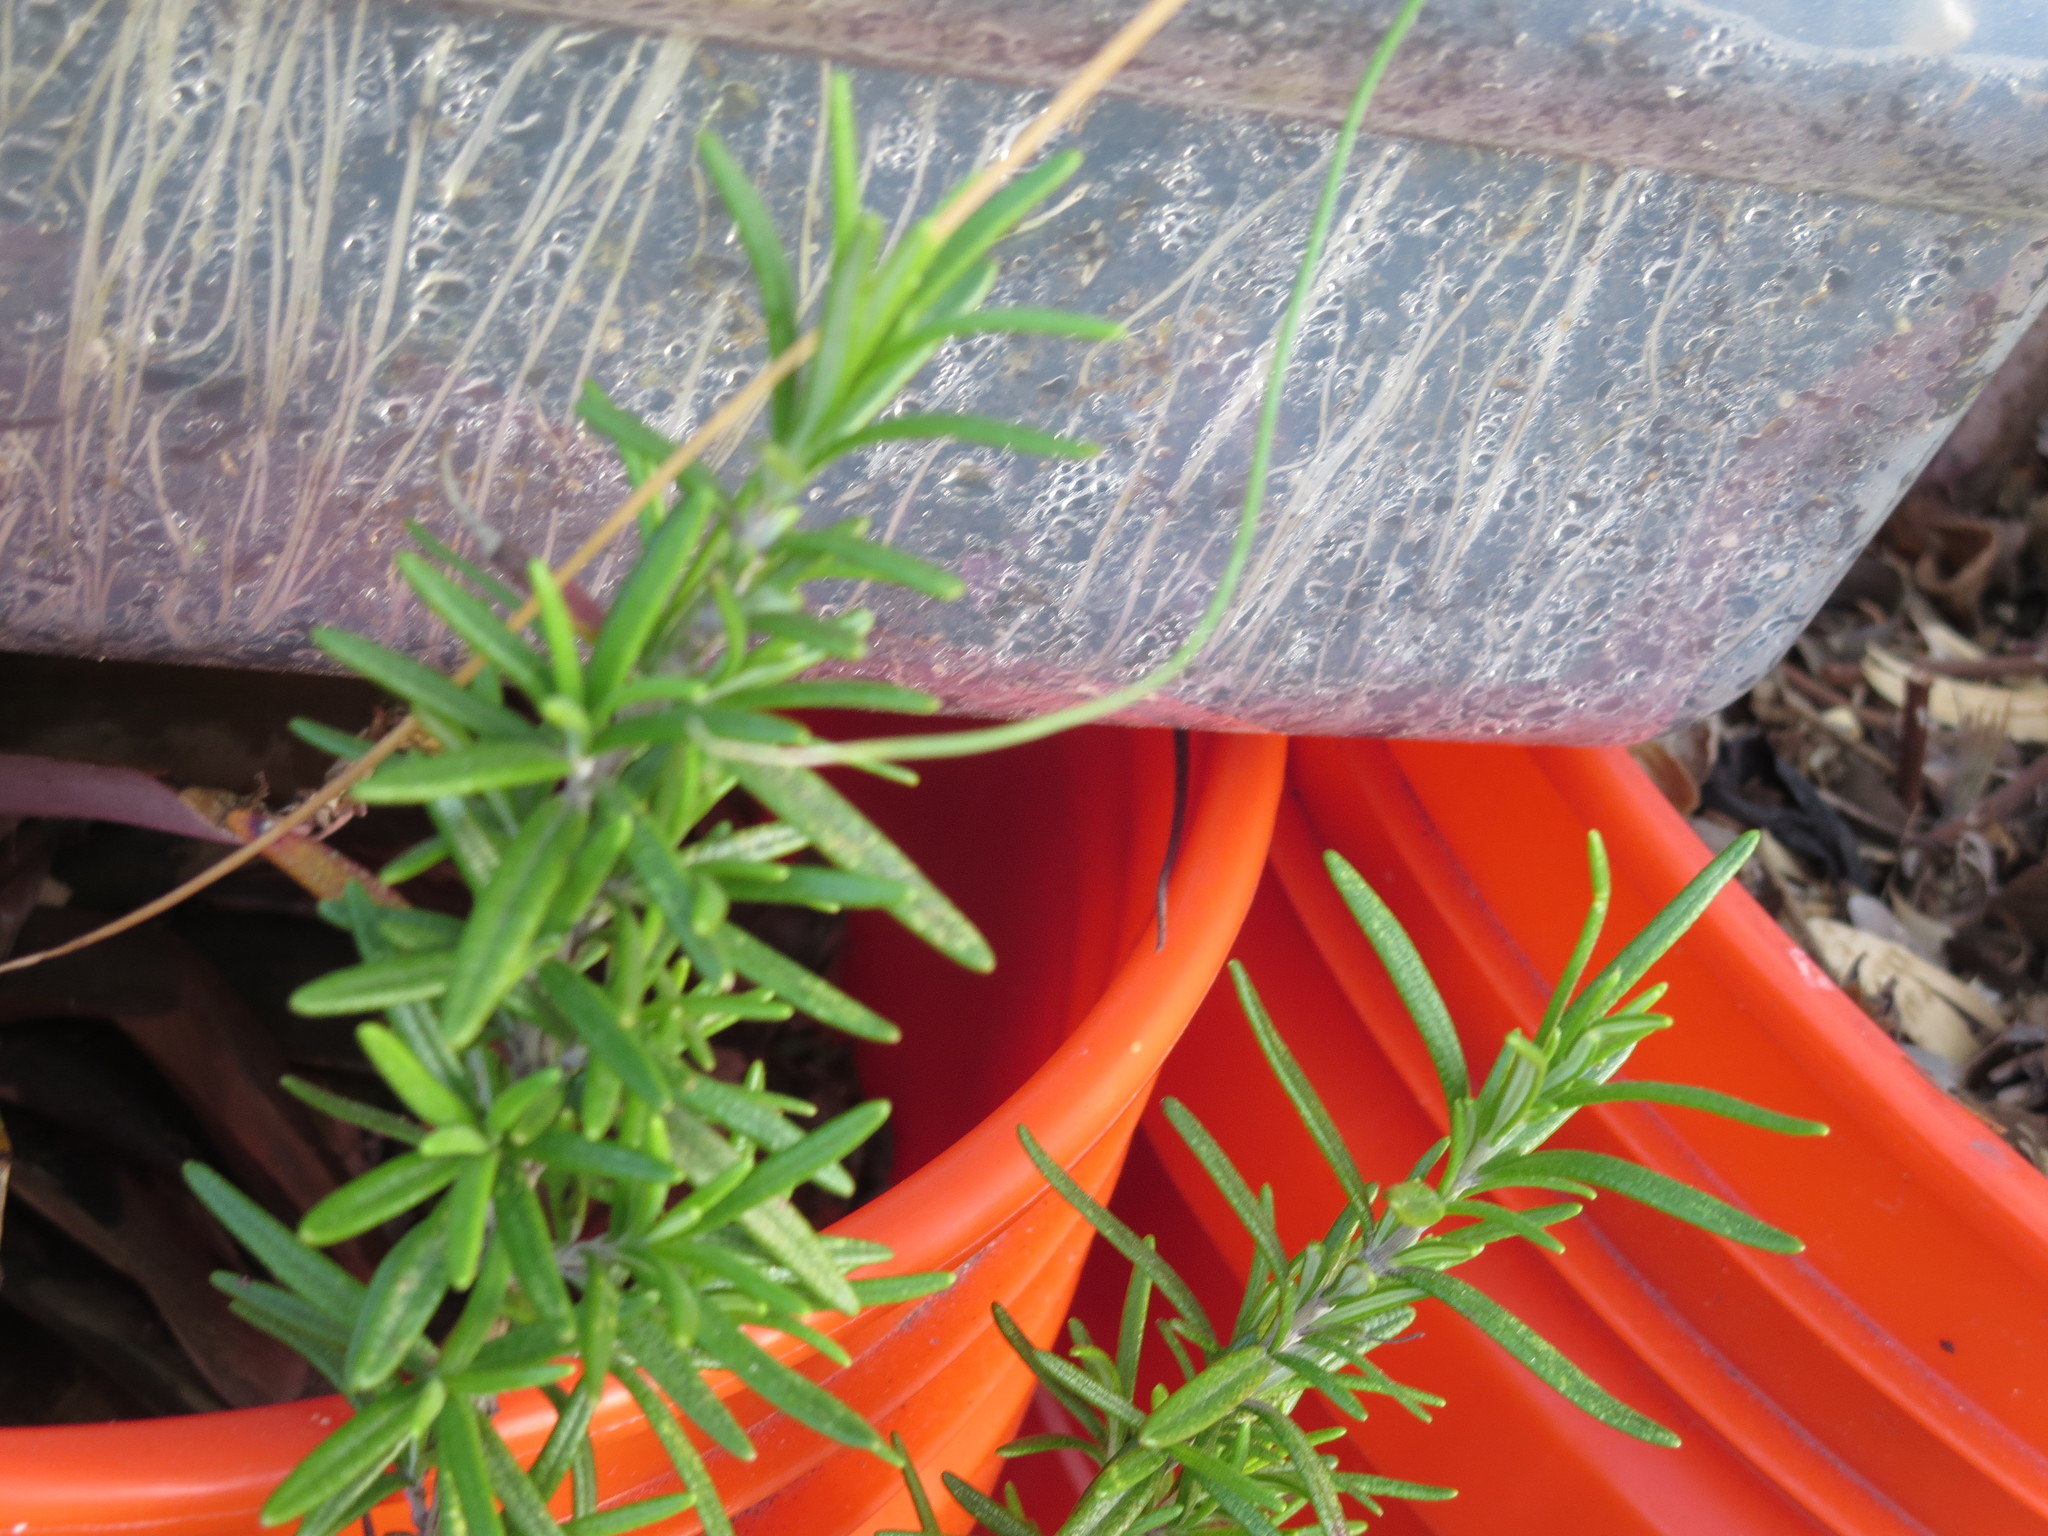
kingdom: Animalia
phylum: Chordata
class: Squamata
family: Dactyloidae
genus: Anolis
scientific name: Anolis carolinensis
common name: Green anole
